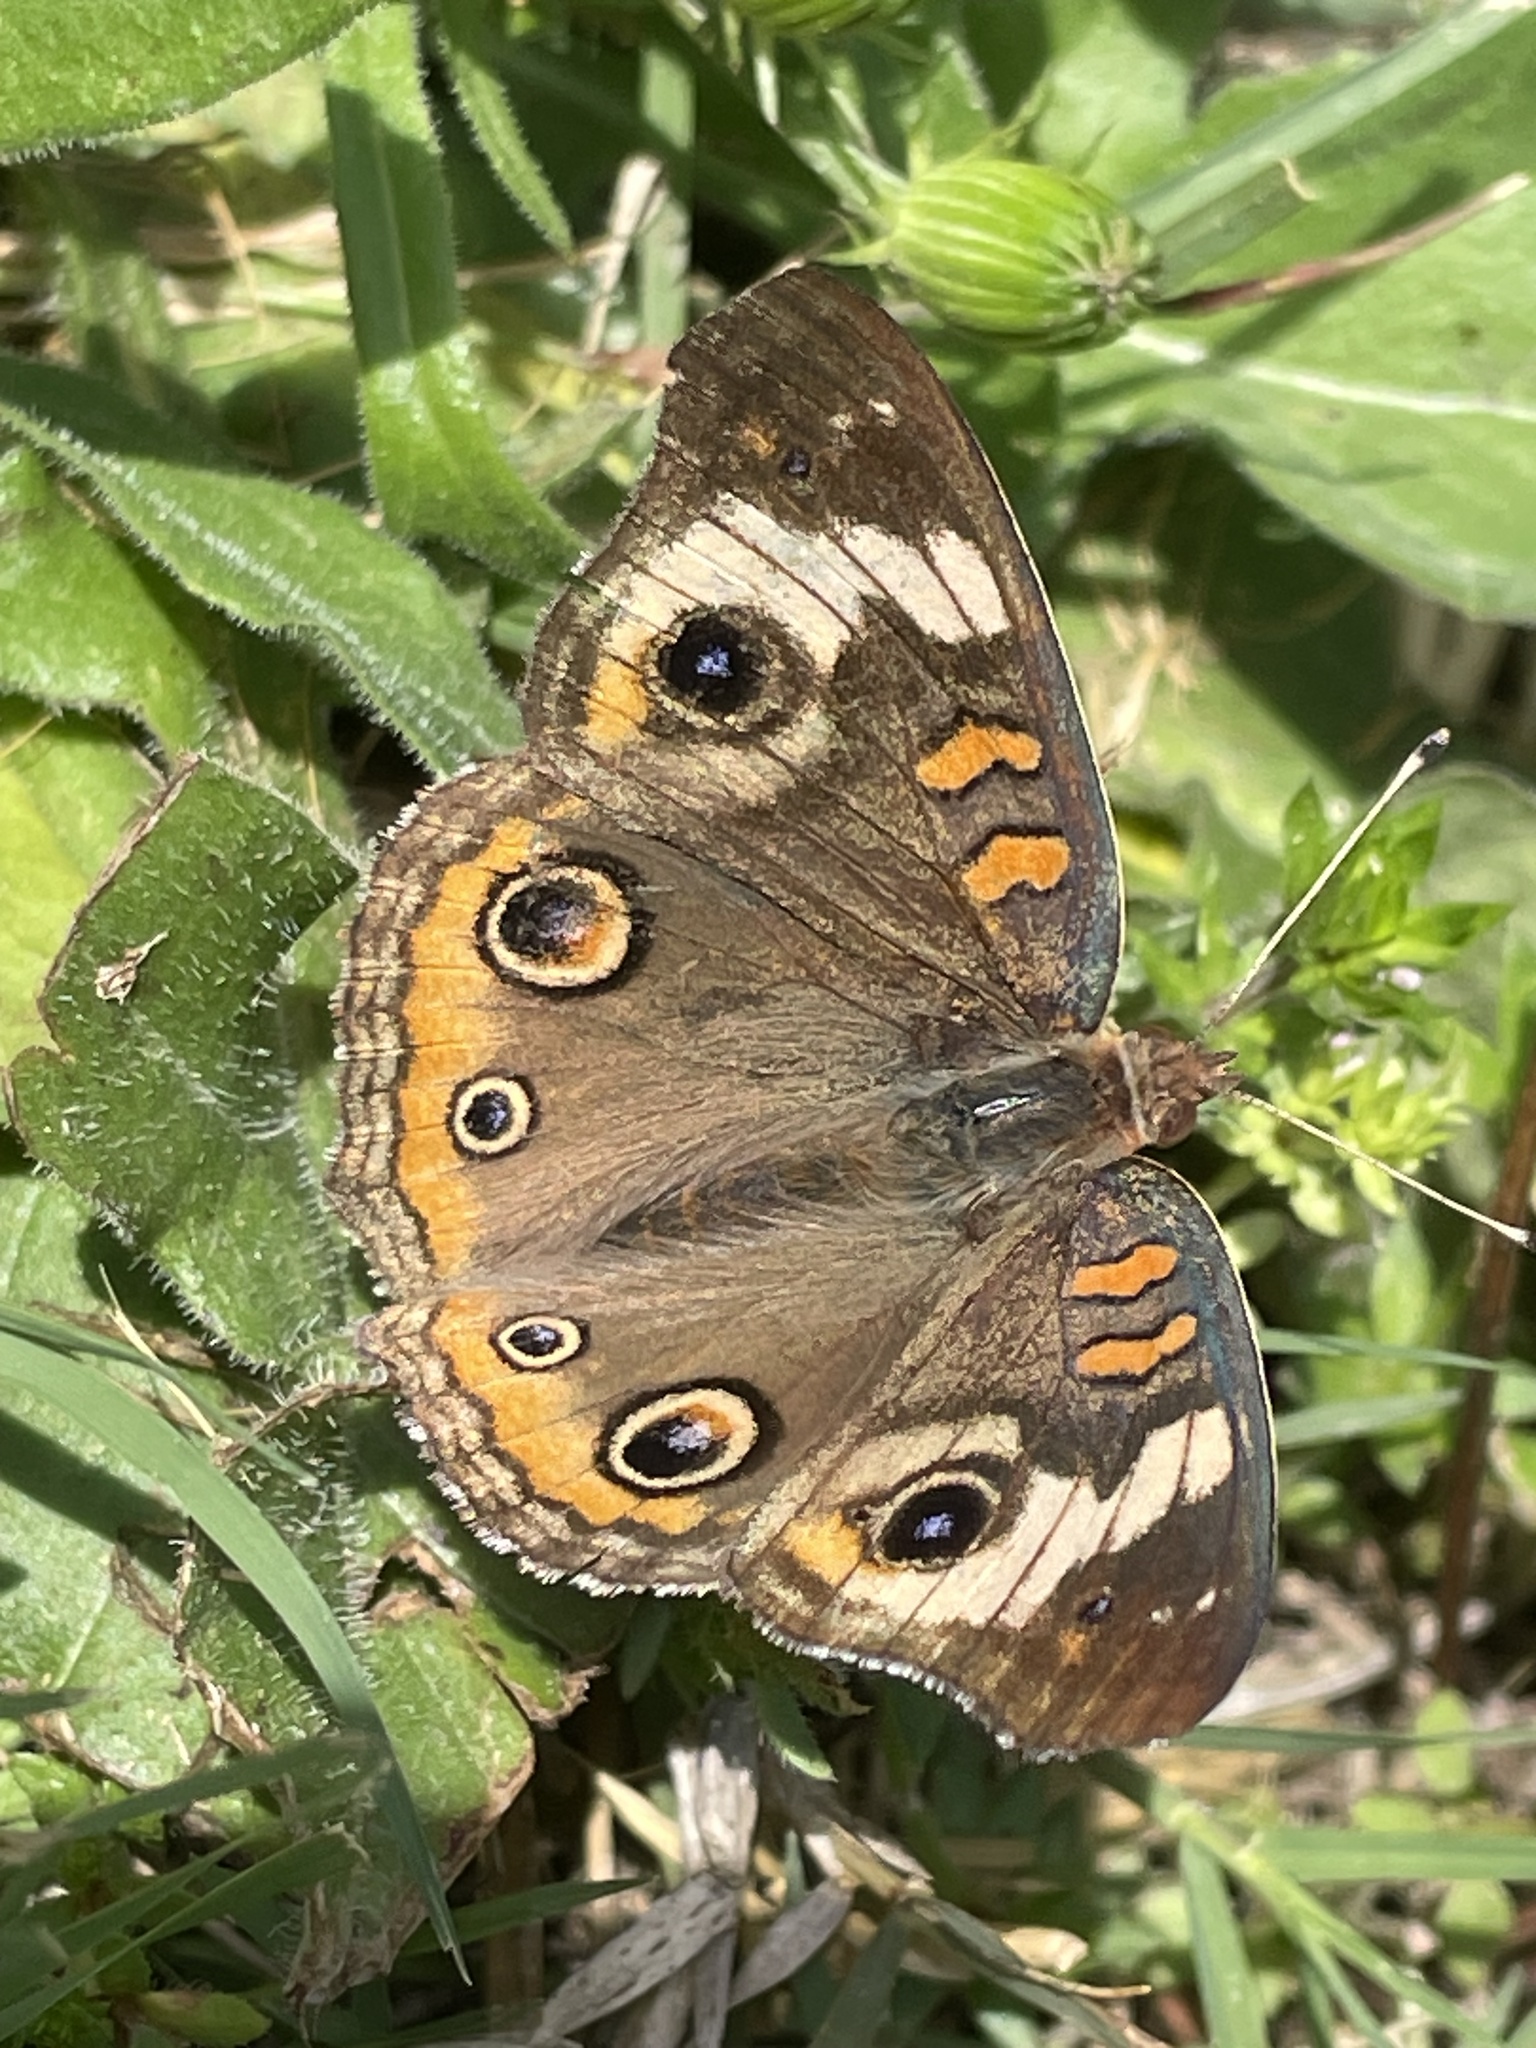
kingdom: Animalia
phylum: Arthropoda
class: Insecta
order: Lepidoptera
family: Nymphalidae
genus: Junonia
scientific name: Junonia coenia
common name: Common buckeye
